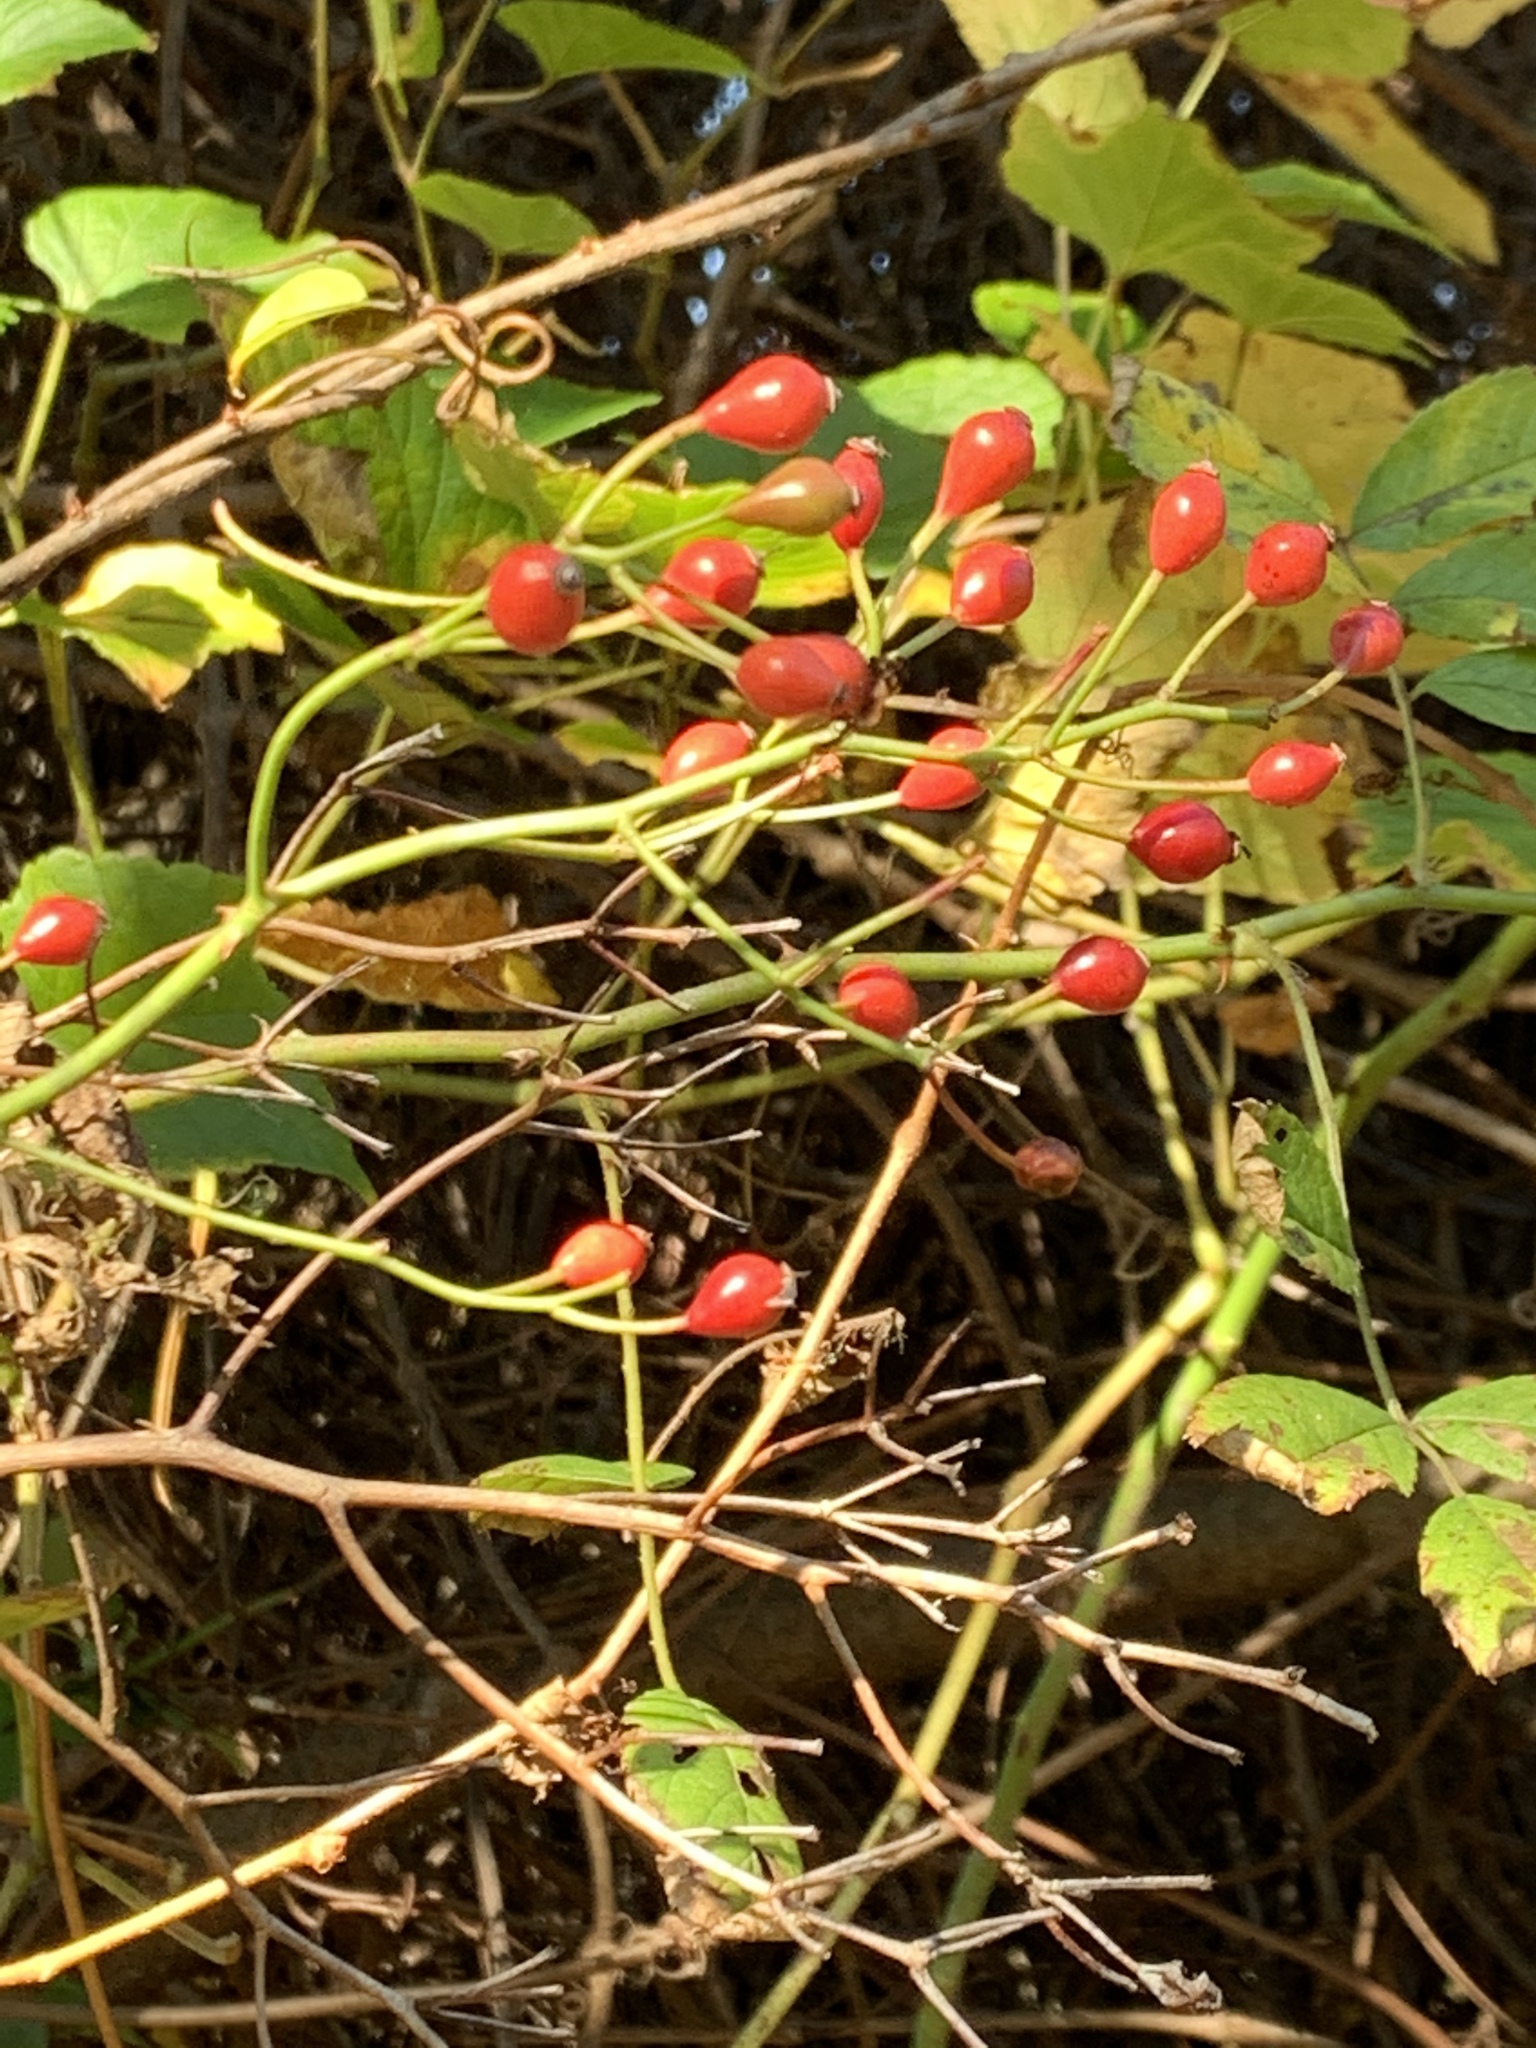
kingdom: Plantae
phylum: Tracheophyta
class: Magnoliopsida
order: Rosales
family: Rosaceae
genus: Rosa
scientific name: Rosa multiflora
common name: Multiflora rose
